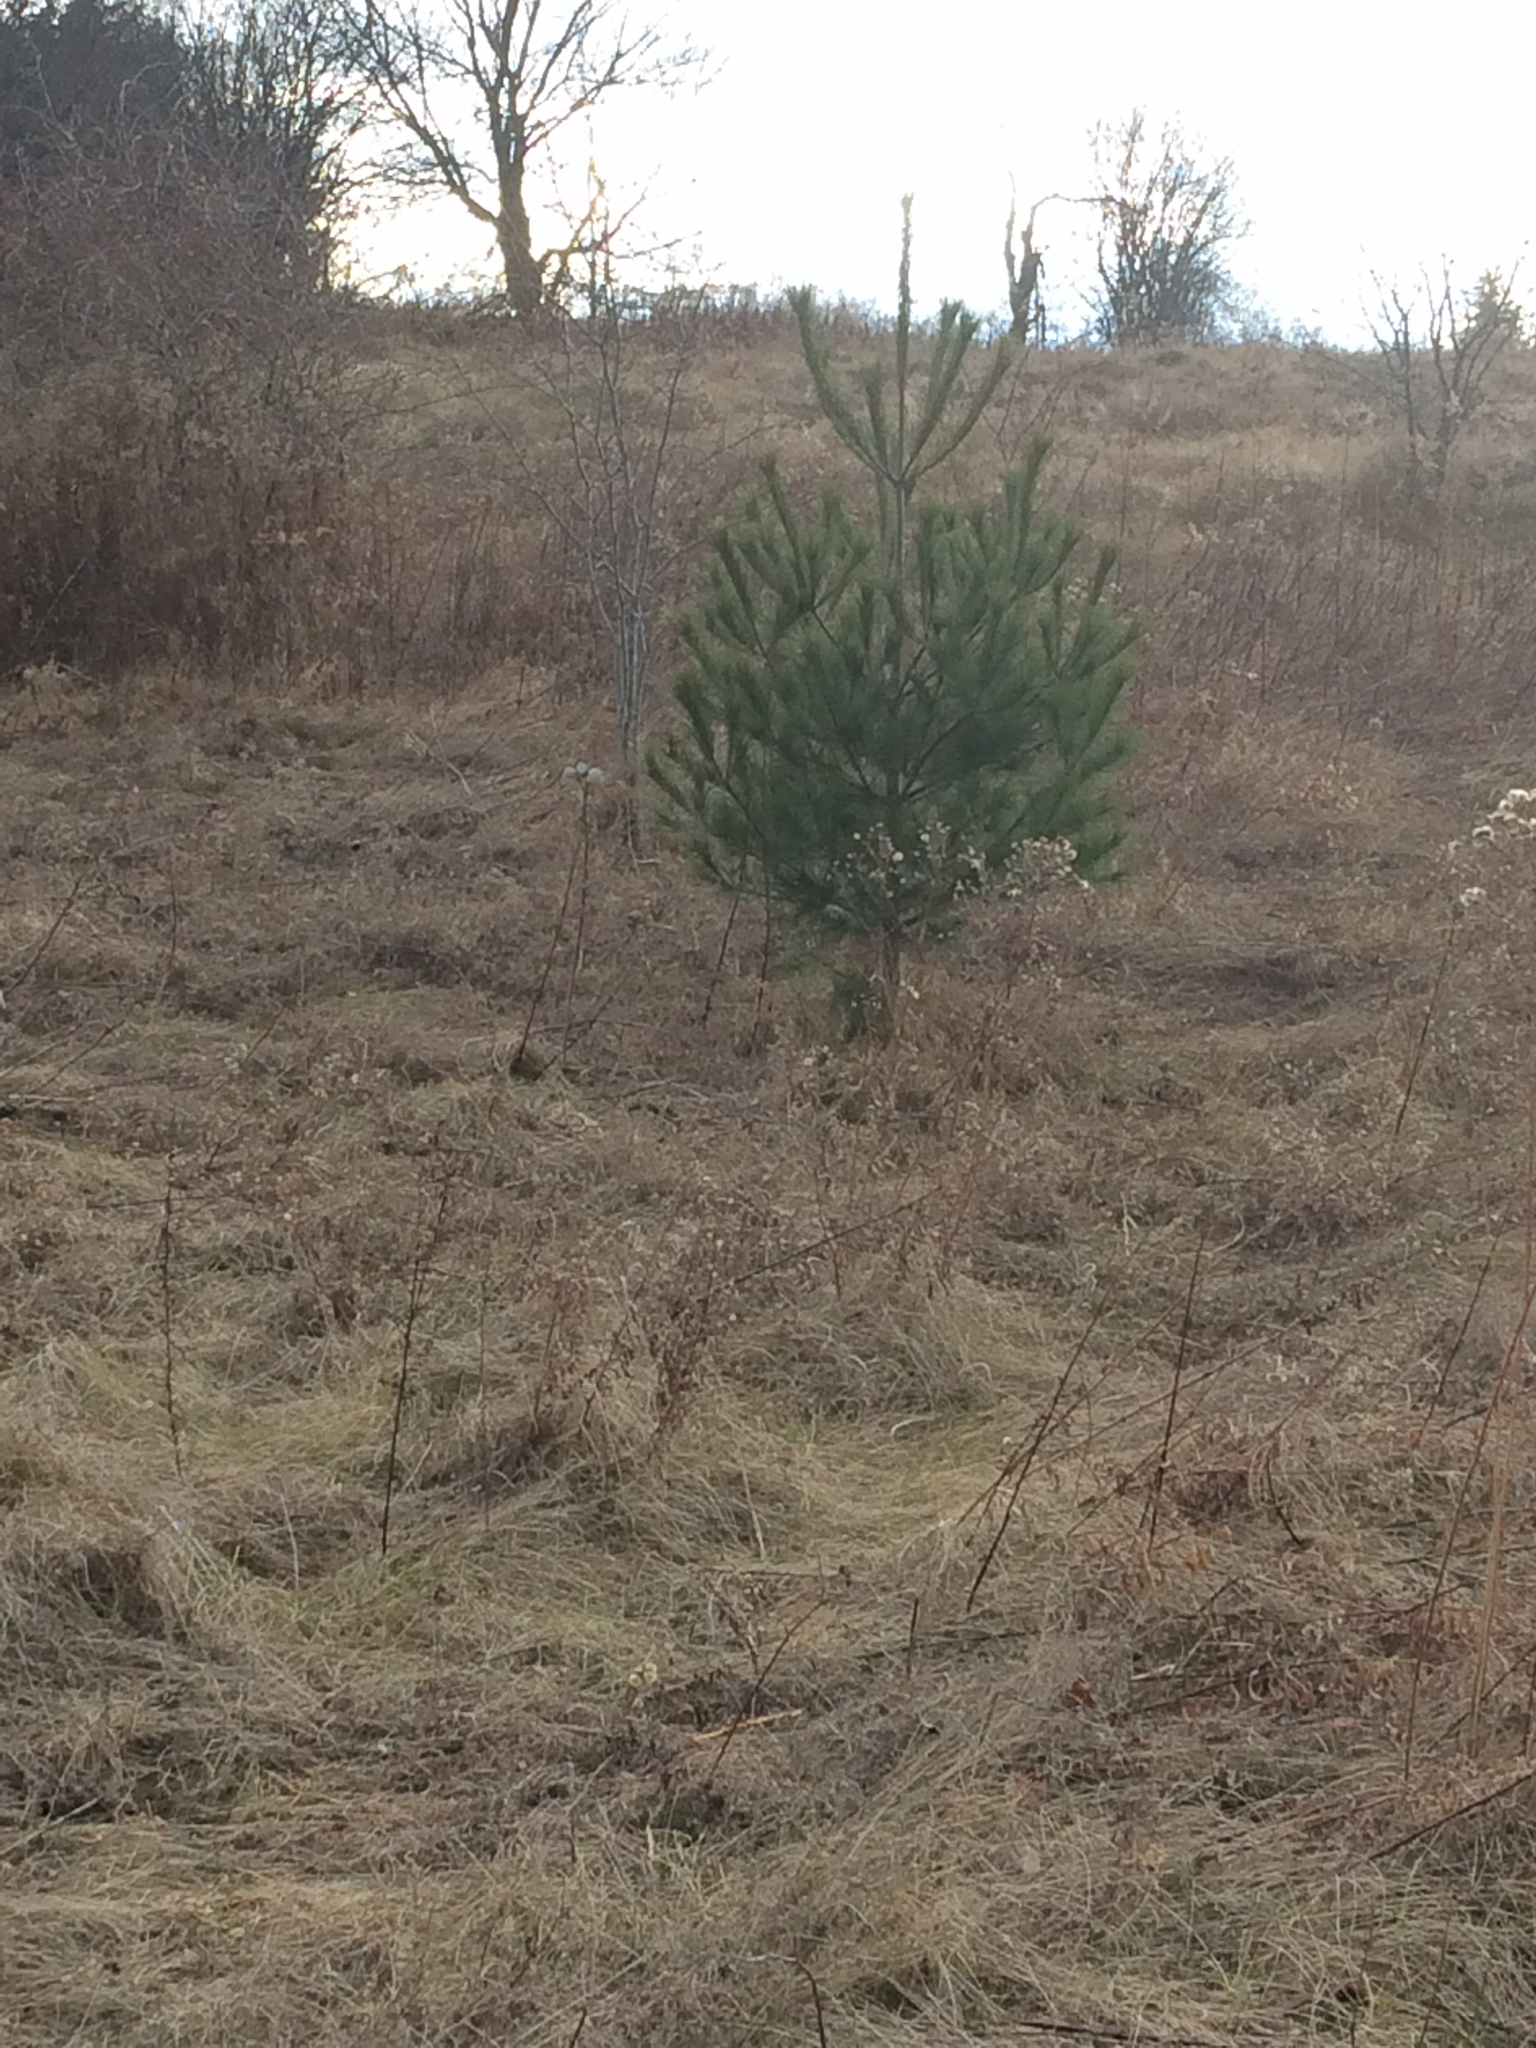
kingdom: Plantae
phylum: Tracheophyta
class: Pinopsida
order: Pinales
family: Pinaceae
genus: Pinus
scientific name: Pinus strobus
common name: Weymouth pine
